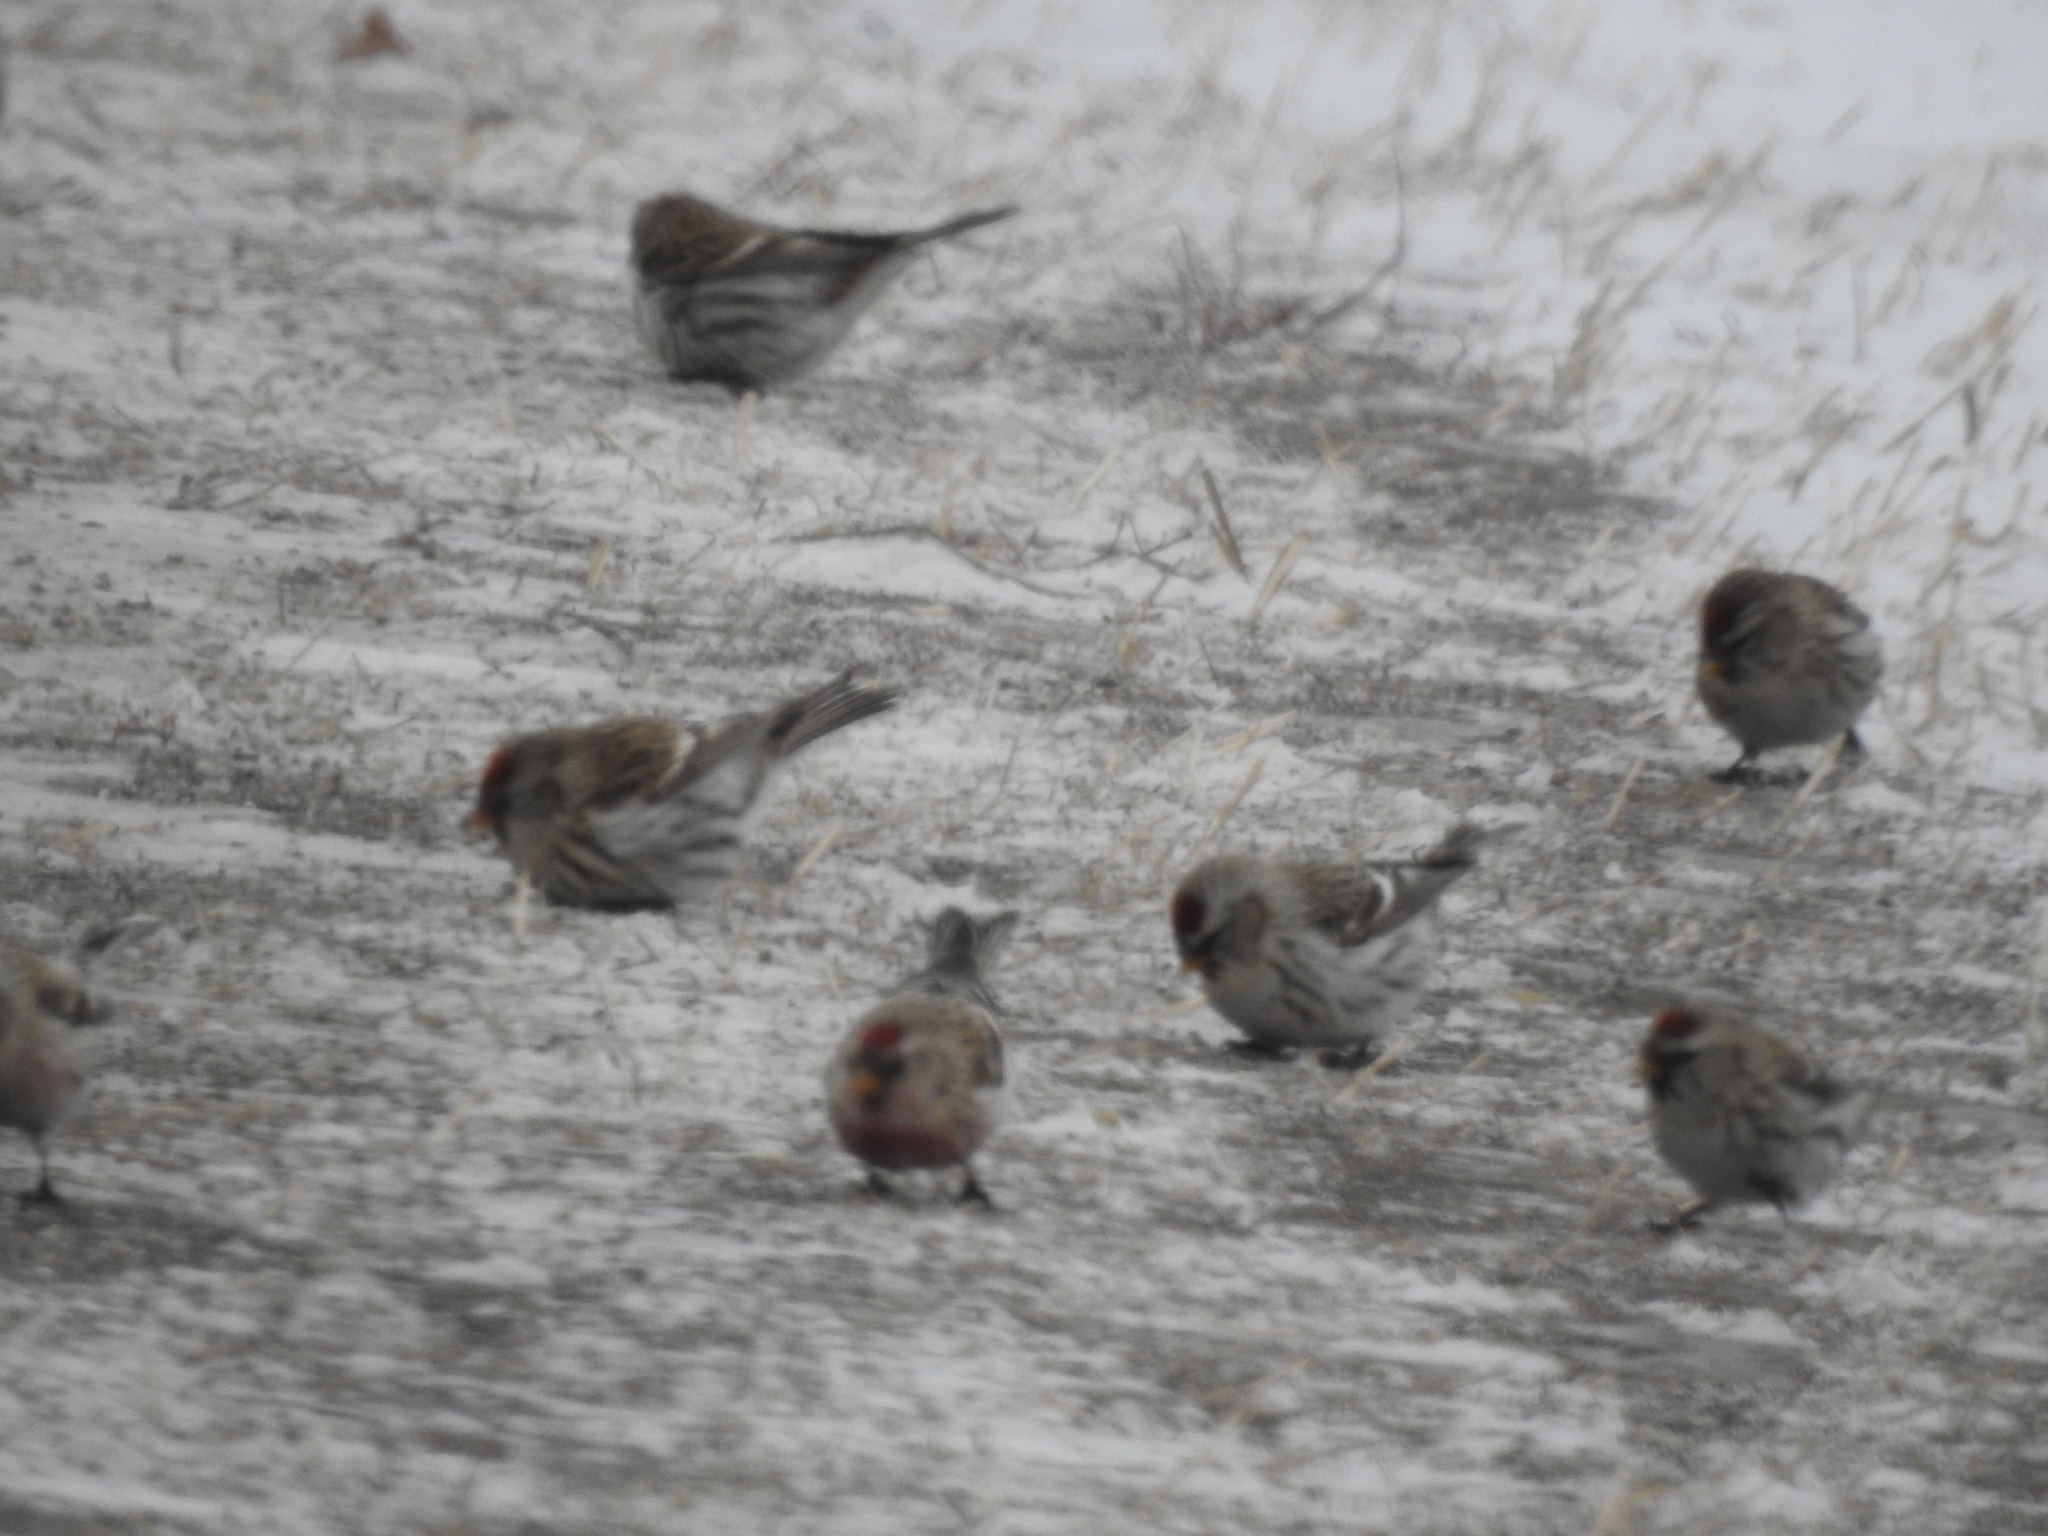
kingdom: Animalia
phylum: Chordata
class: Aves
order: Passeriformes
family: Fringillidae
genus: Acanthis
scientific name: Acanthis flammea
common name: Common redpoll
